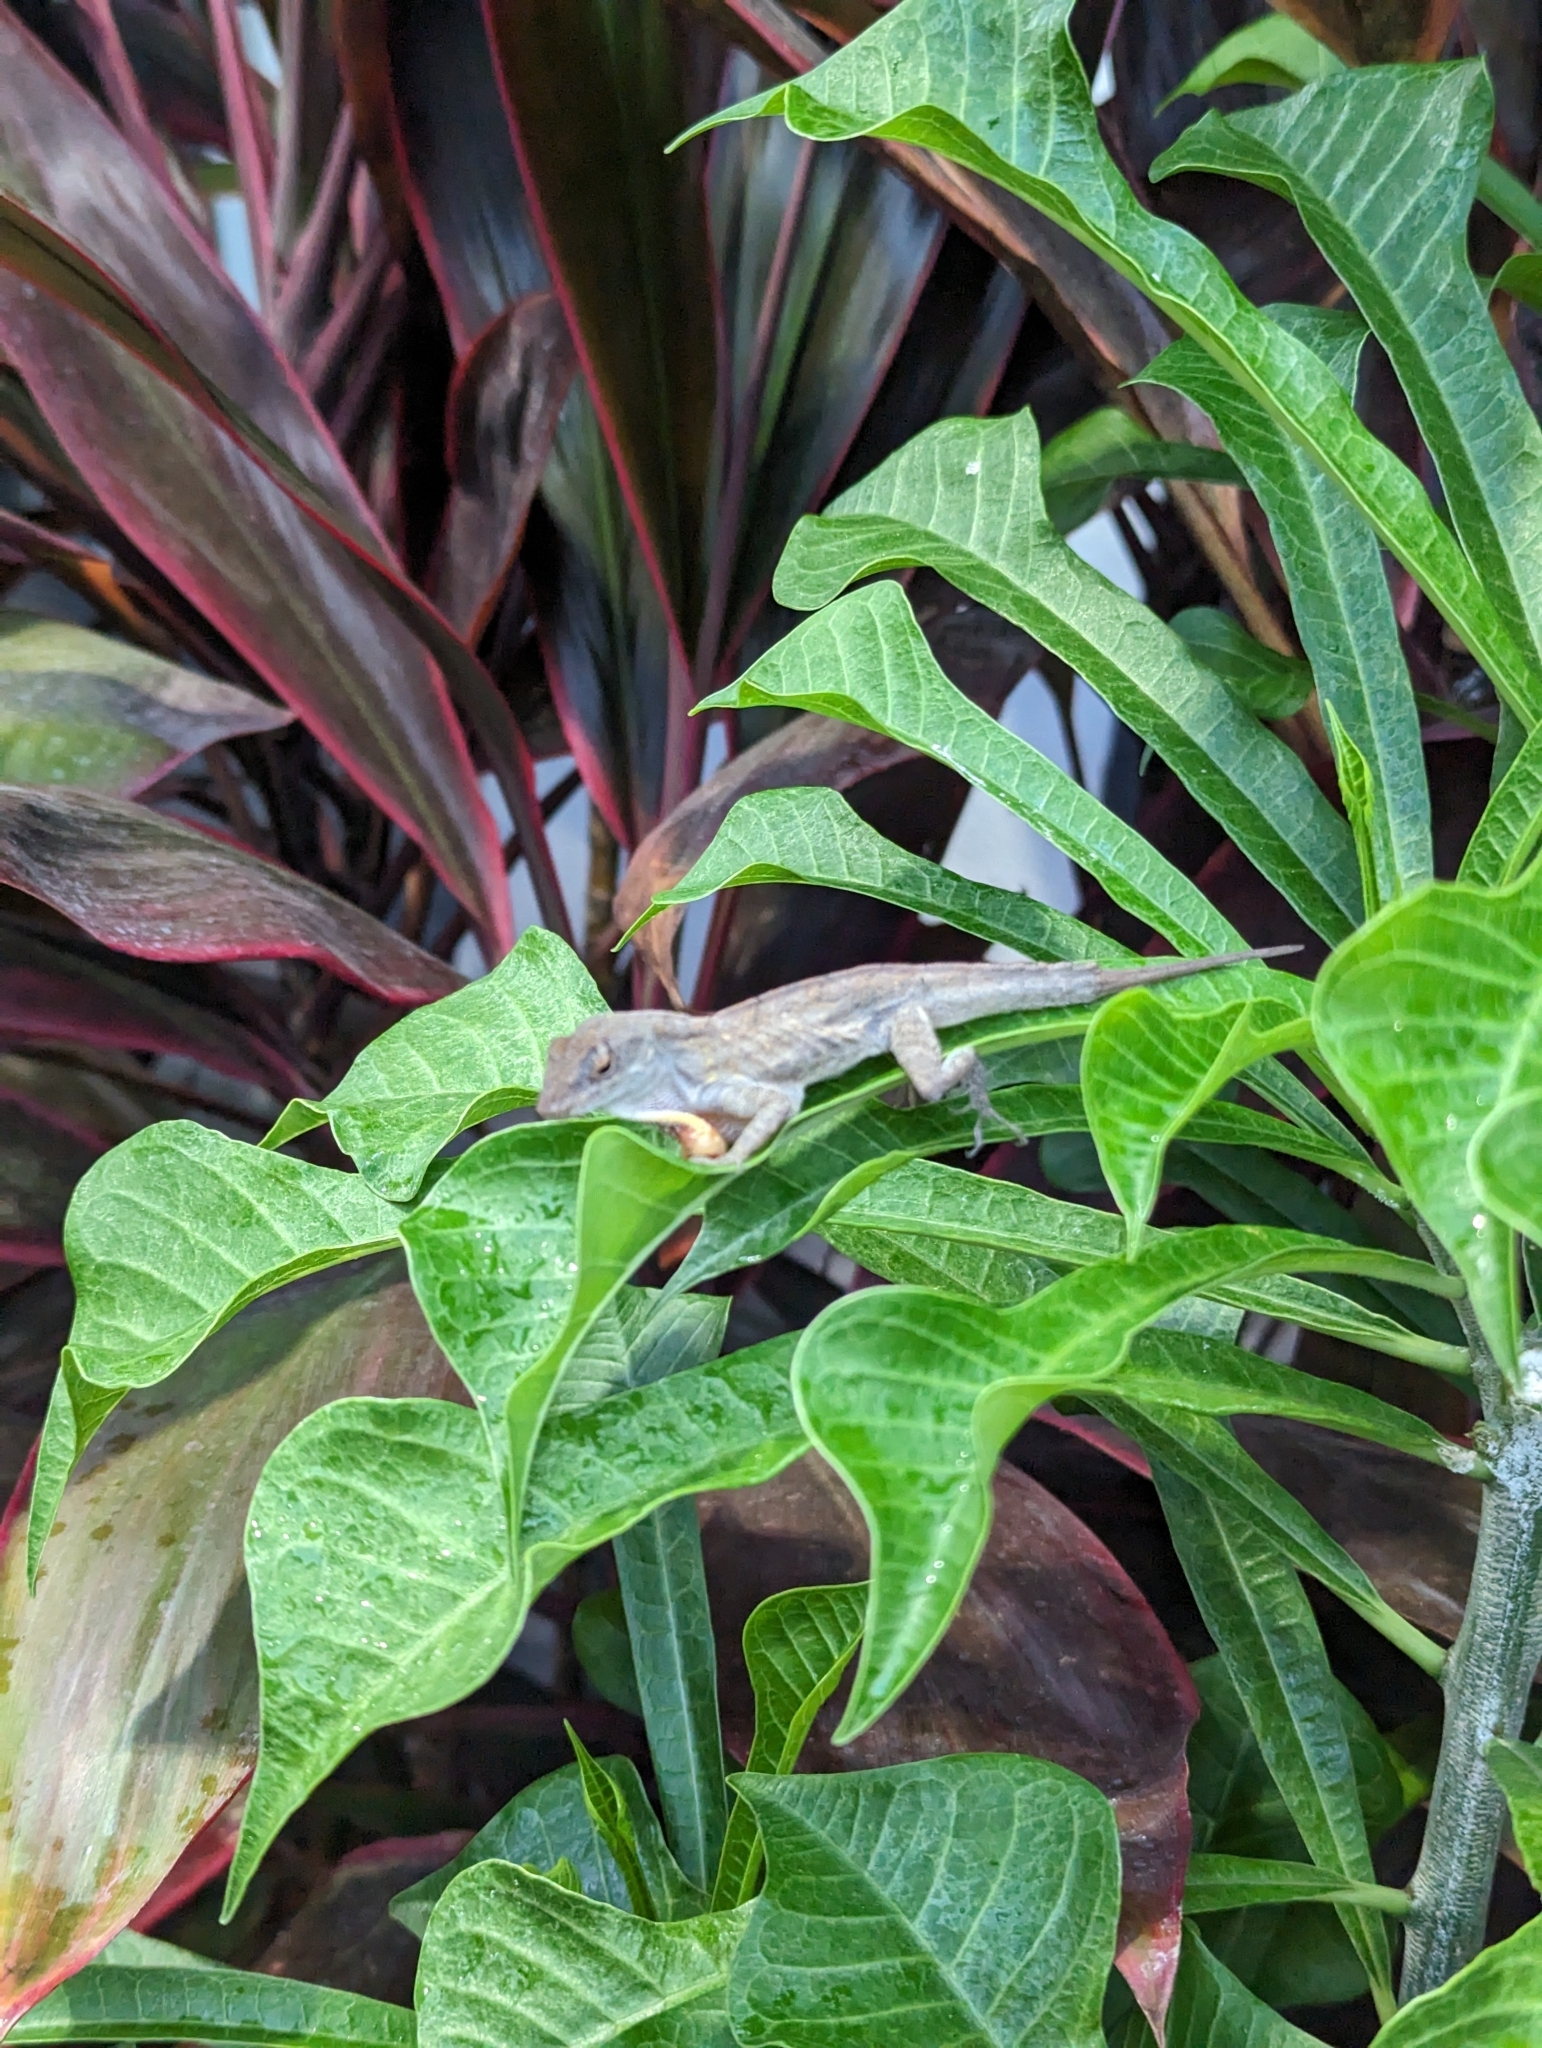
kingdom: Animalia
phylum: Chordata
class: Squamata
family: Dactyloidae
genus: Anolis
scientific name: Anolis sagrei
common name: Brown anole
